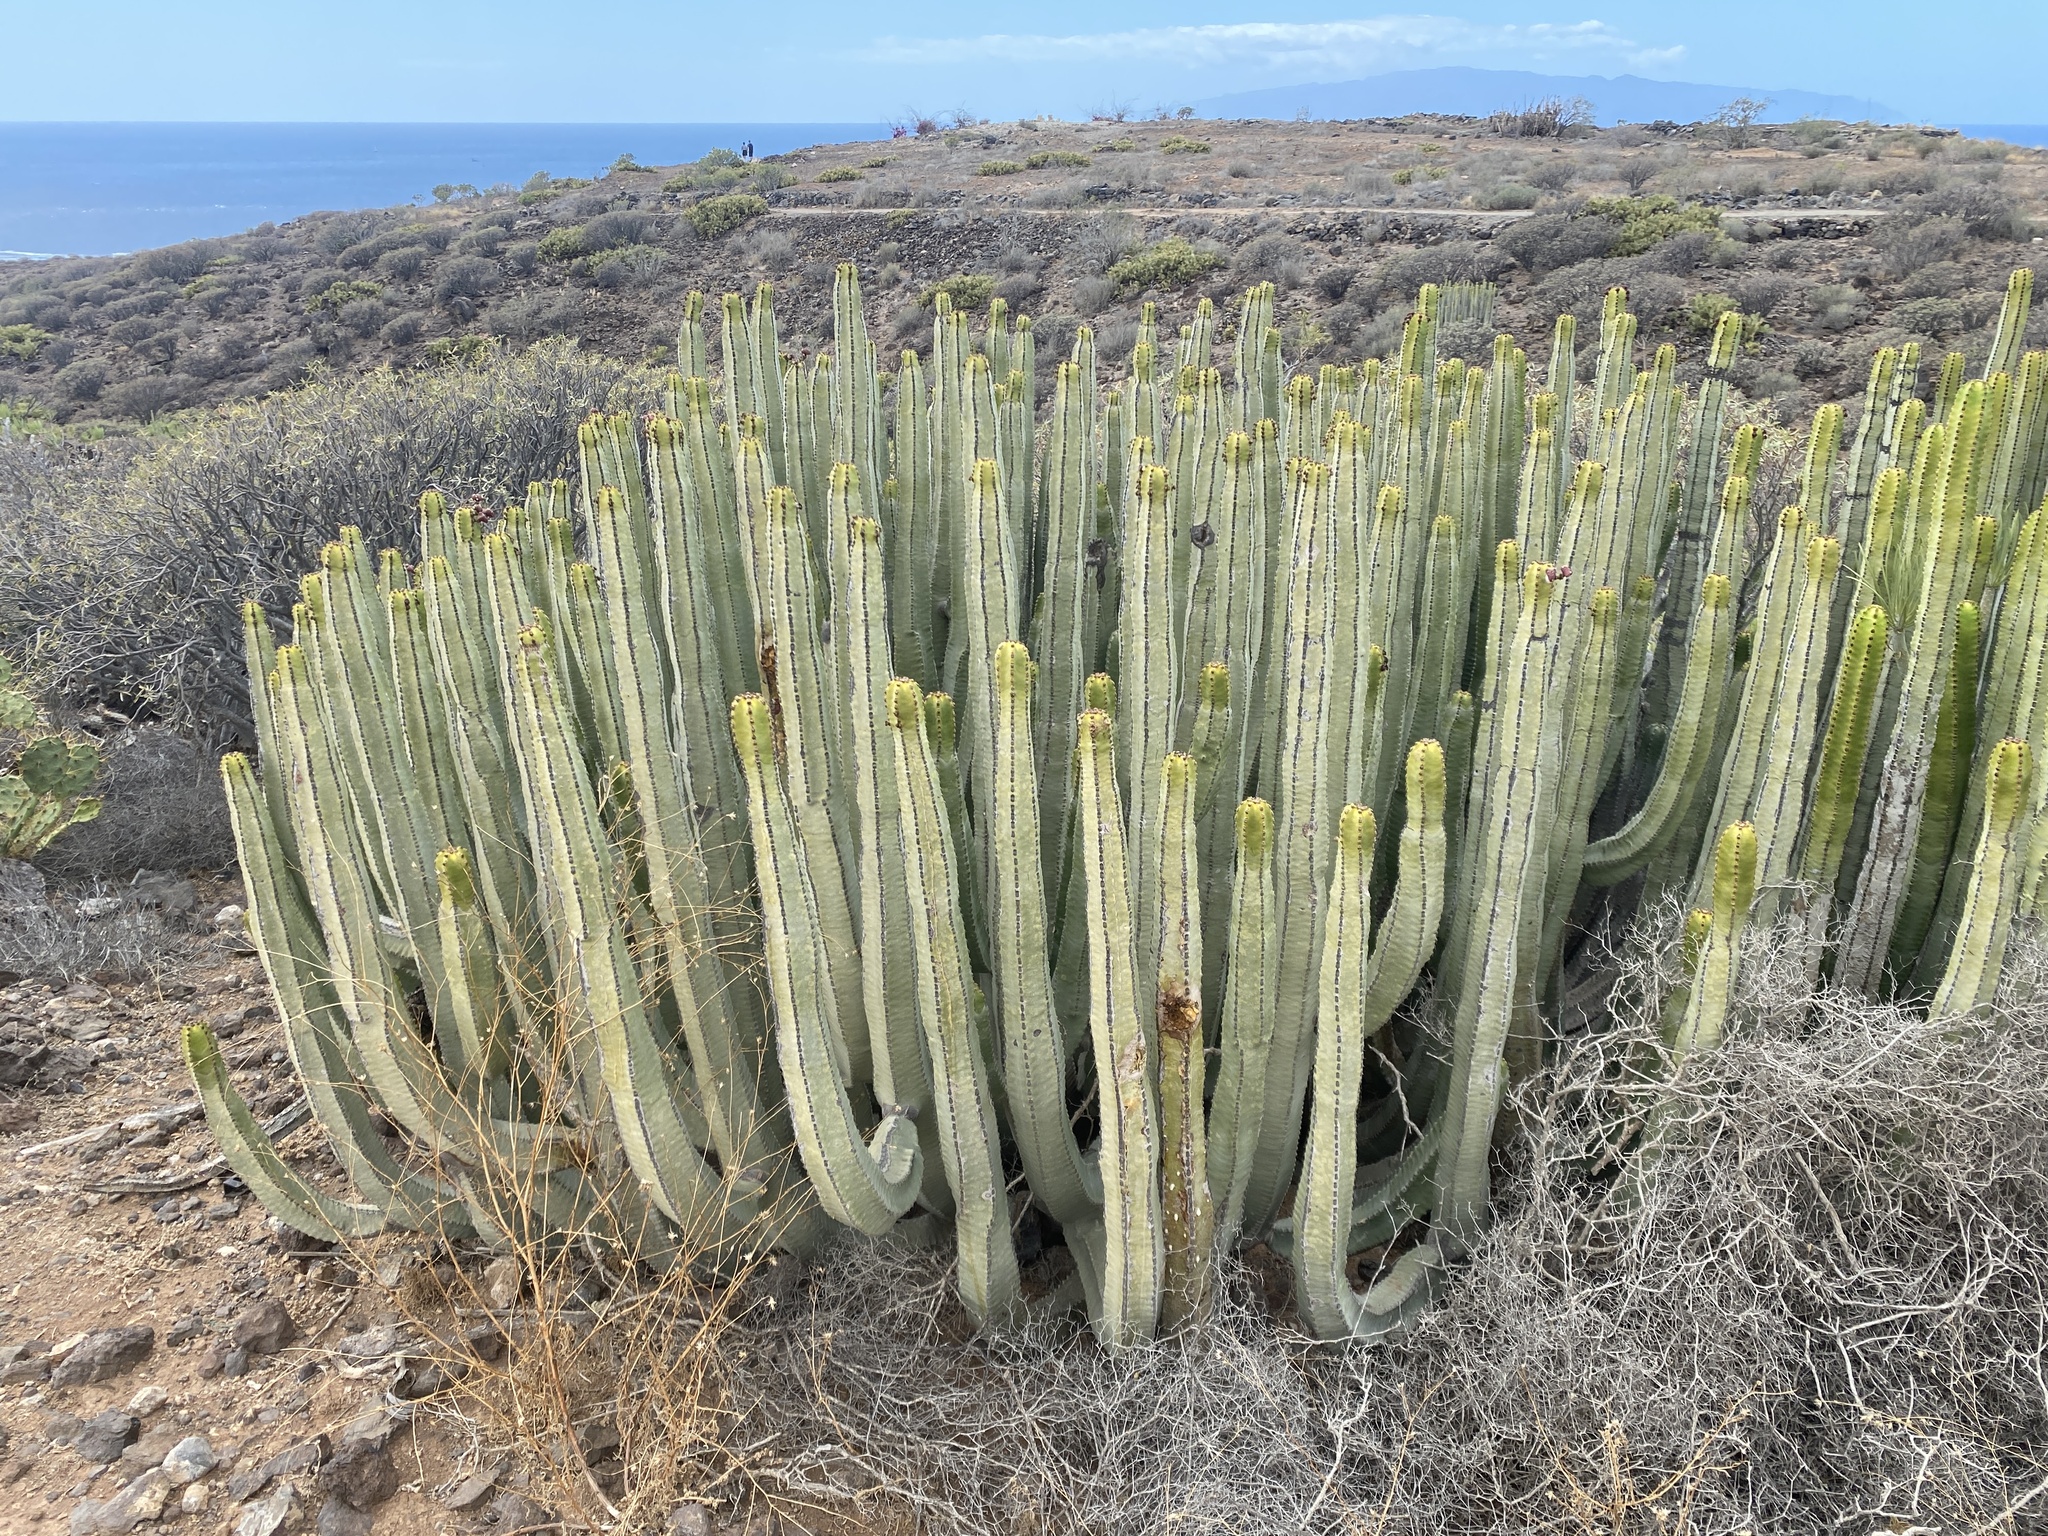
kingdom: Plantae
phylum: Tracheophyta
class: Magnoliopsida
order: Malpighiales
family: Euphorbiaceae
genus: Euphorbia
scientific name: Euphorbia canariensis
